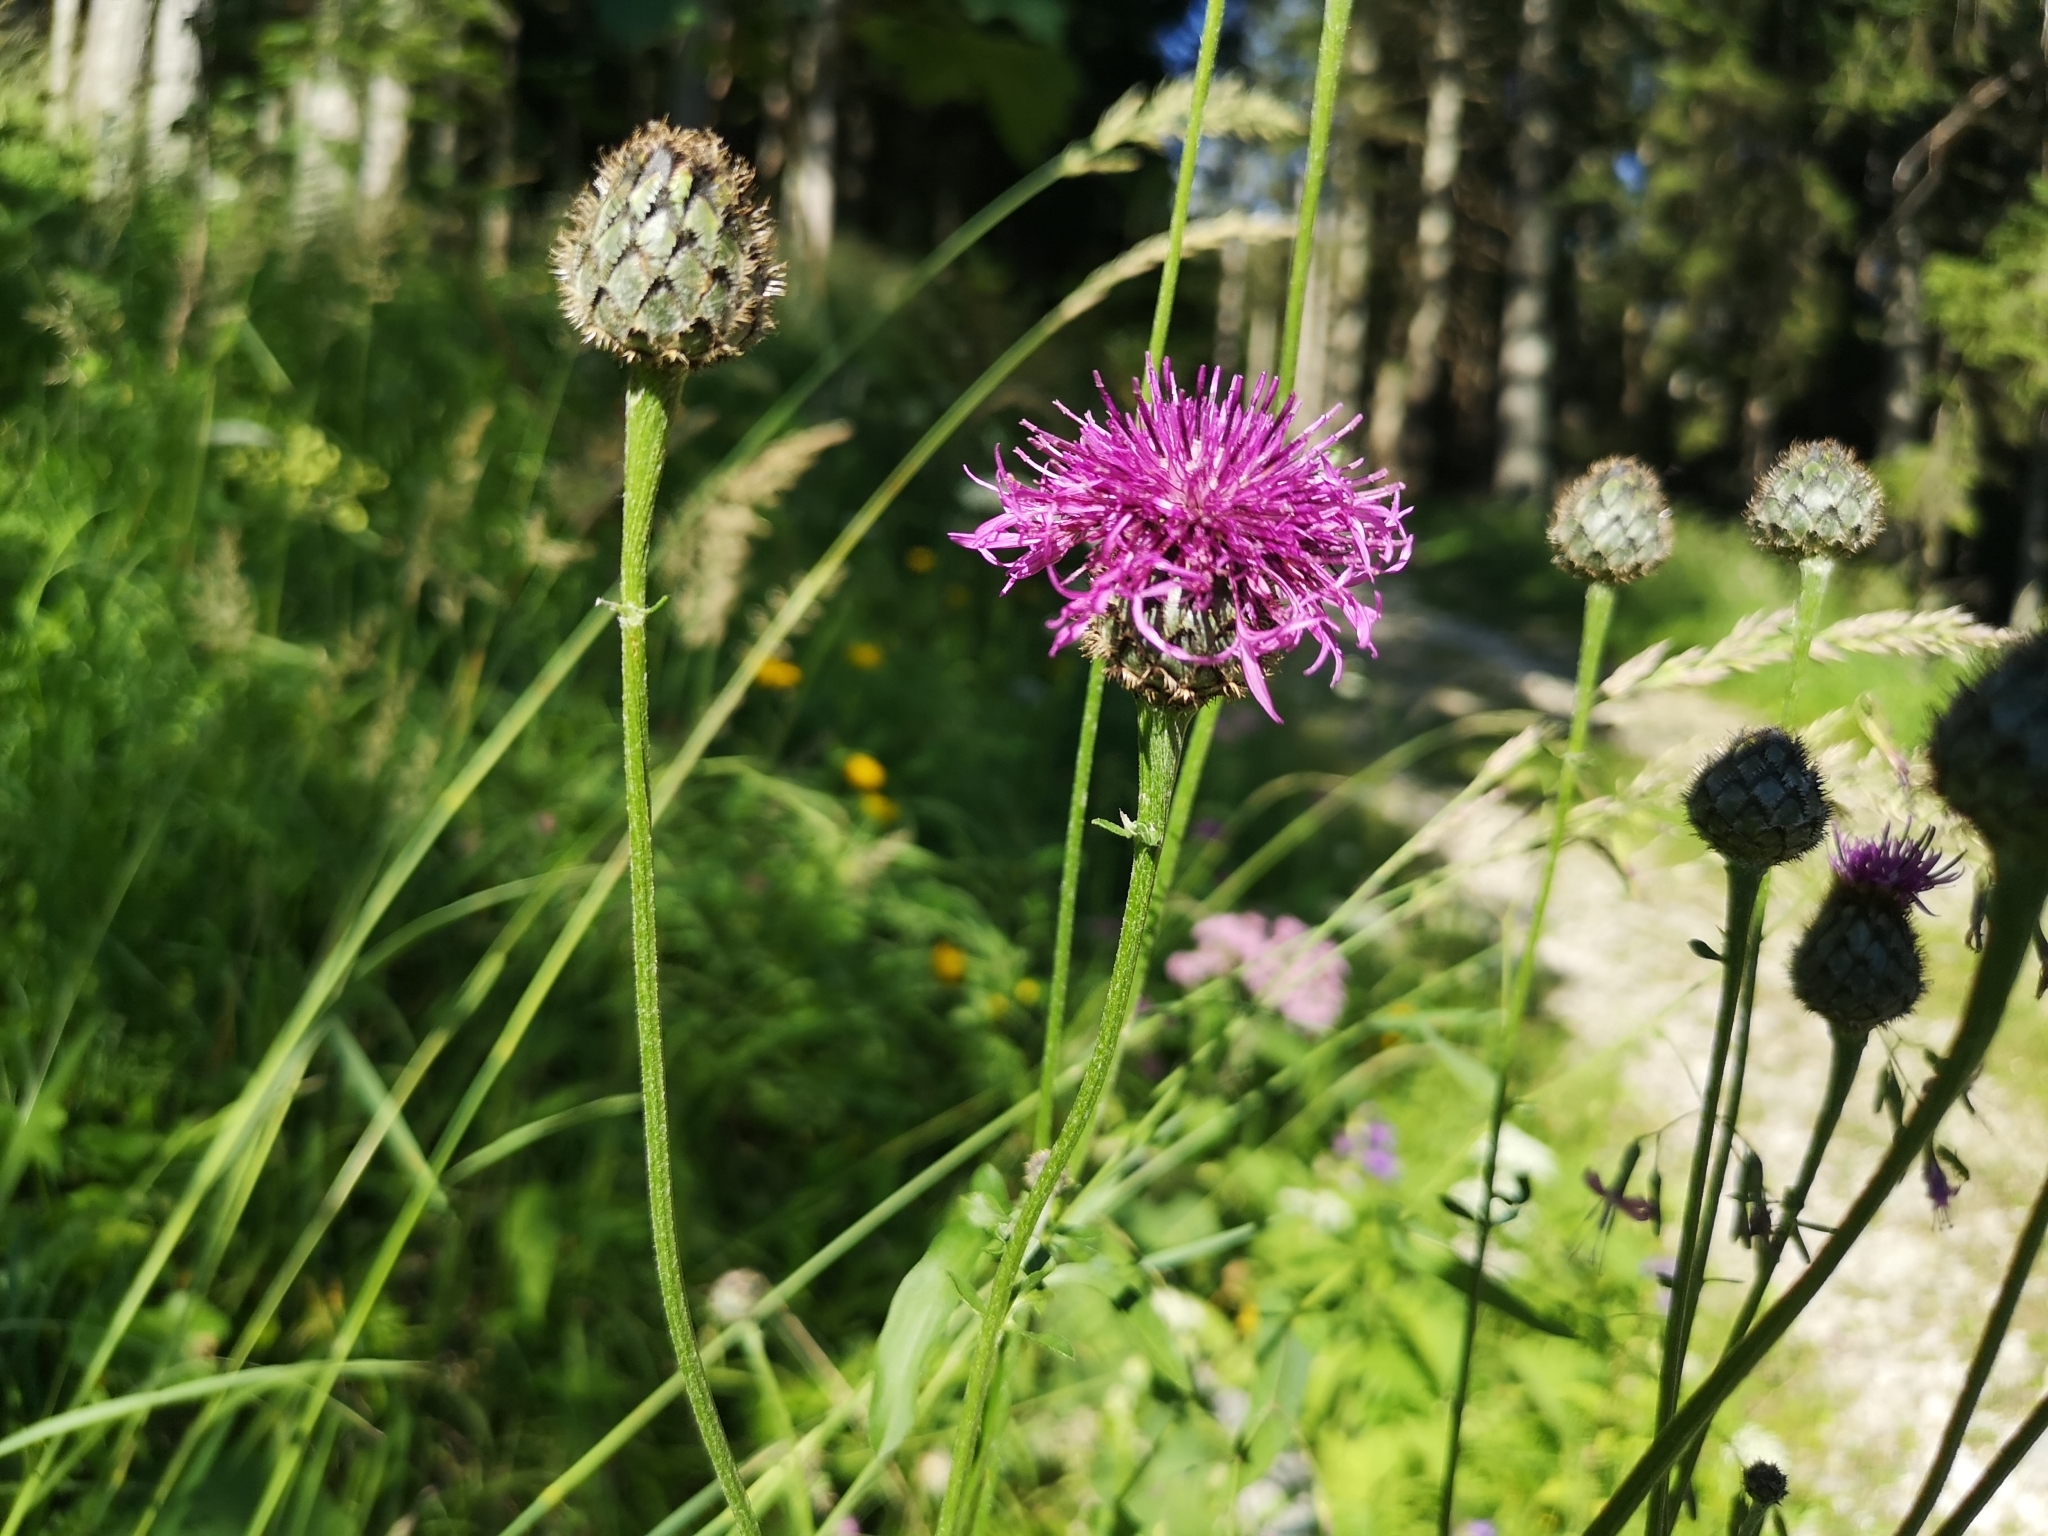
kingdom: Plantae
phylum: Tracheophyta
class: Magnoliopsida
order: Asterales
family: Asteraceae
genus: Centaurea
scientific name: Centaurea scabiosa
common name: Greater knapweed
